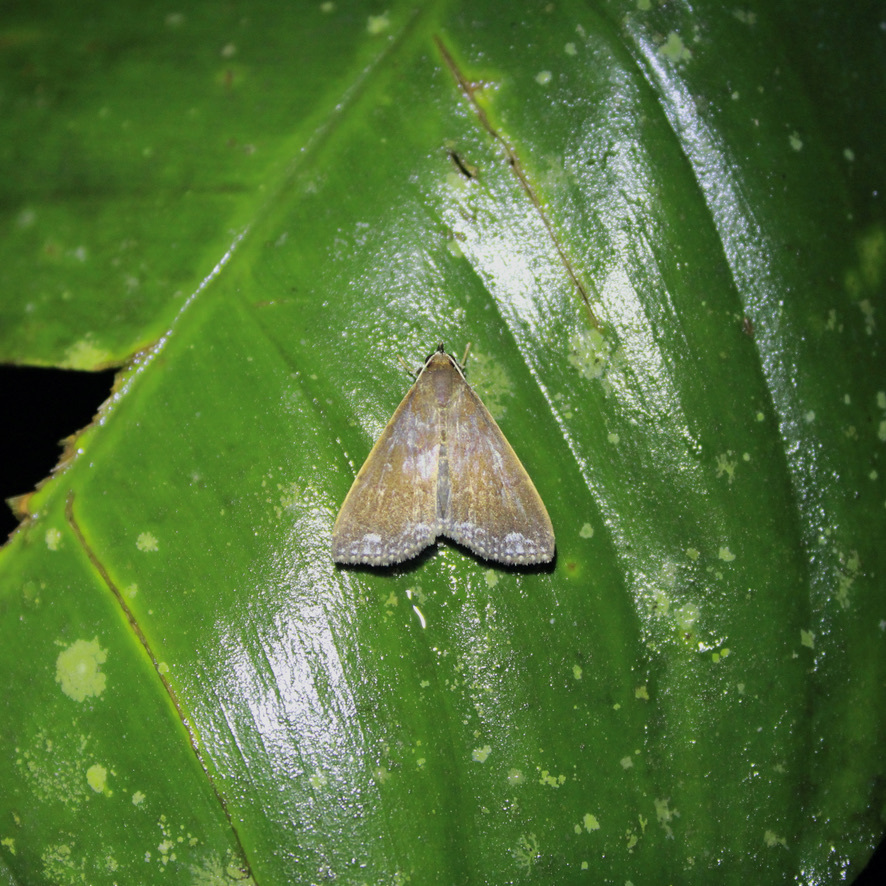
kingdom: Animalia
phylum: Arthropoda
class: Insecta
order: Lepidoptera
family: Erebidae
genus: Aristaria
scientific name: Aristaria theroalis
